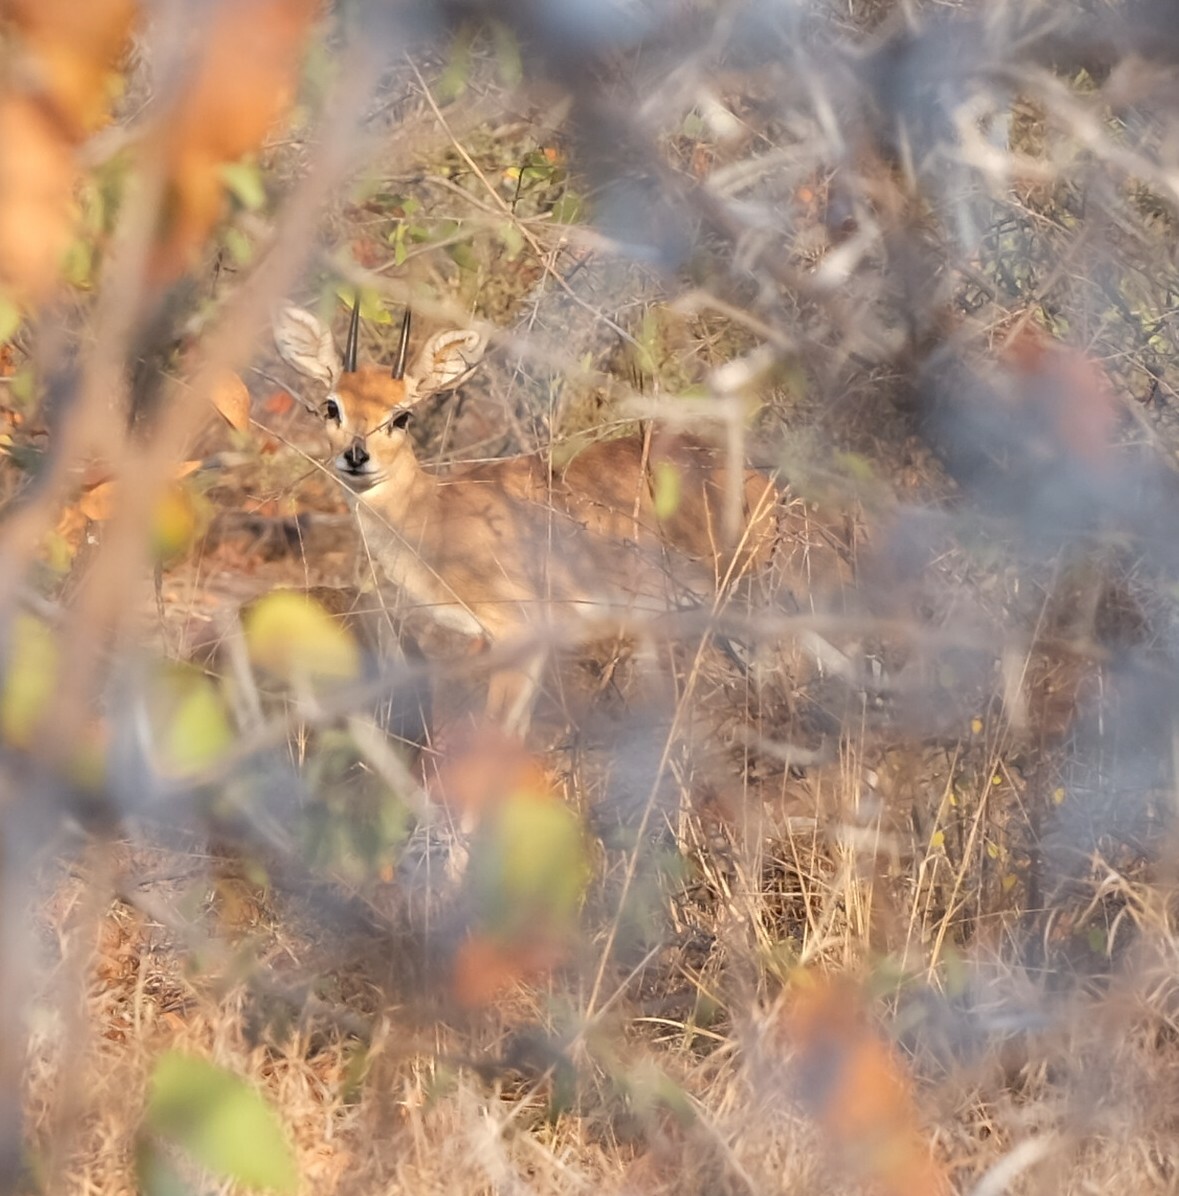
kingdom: Animalia
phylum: Chordata
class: Mammalia
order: Artiodactyla
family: Bovidae
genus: Raphicerus
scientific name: Raphicerus campestris
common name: Steenbok
